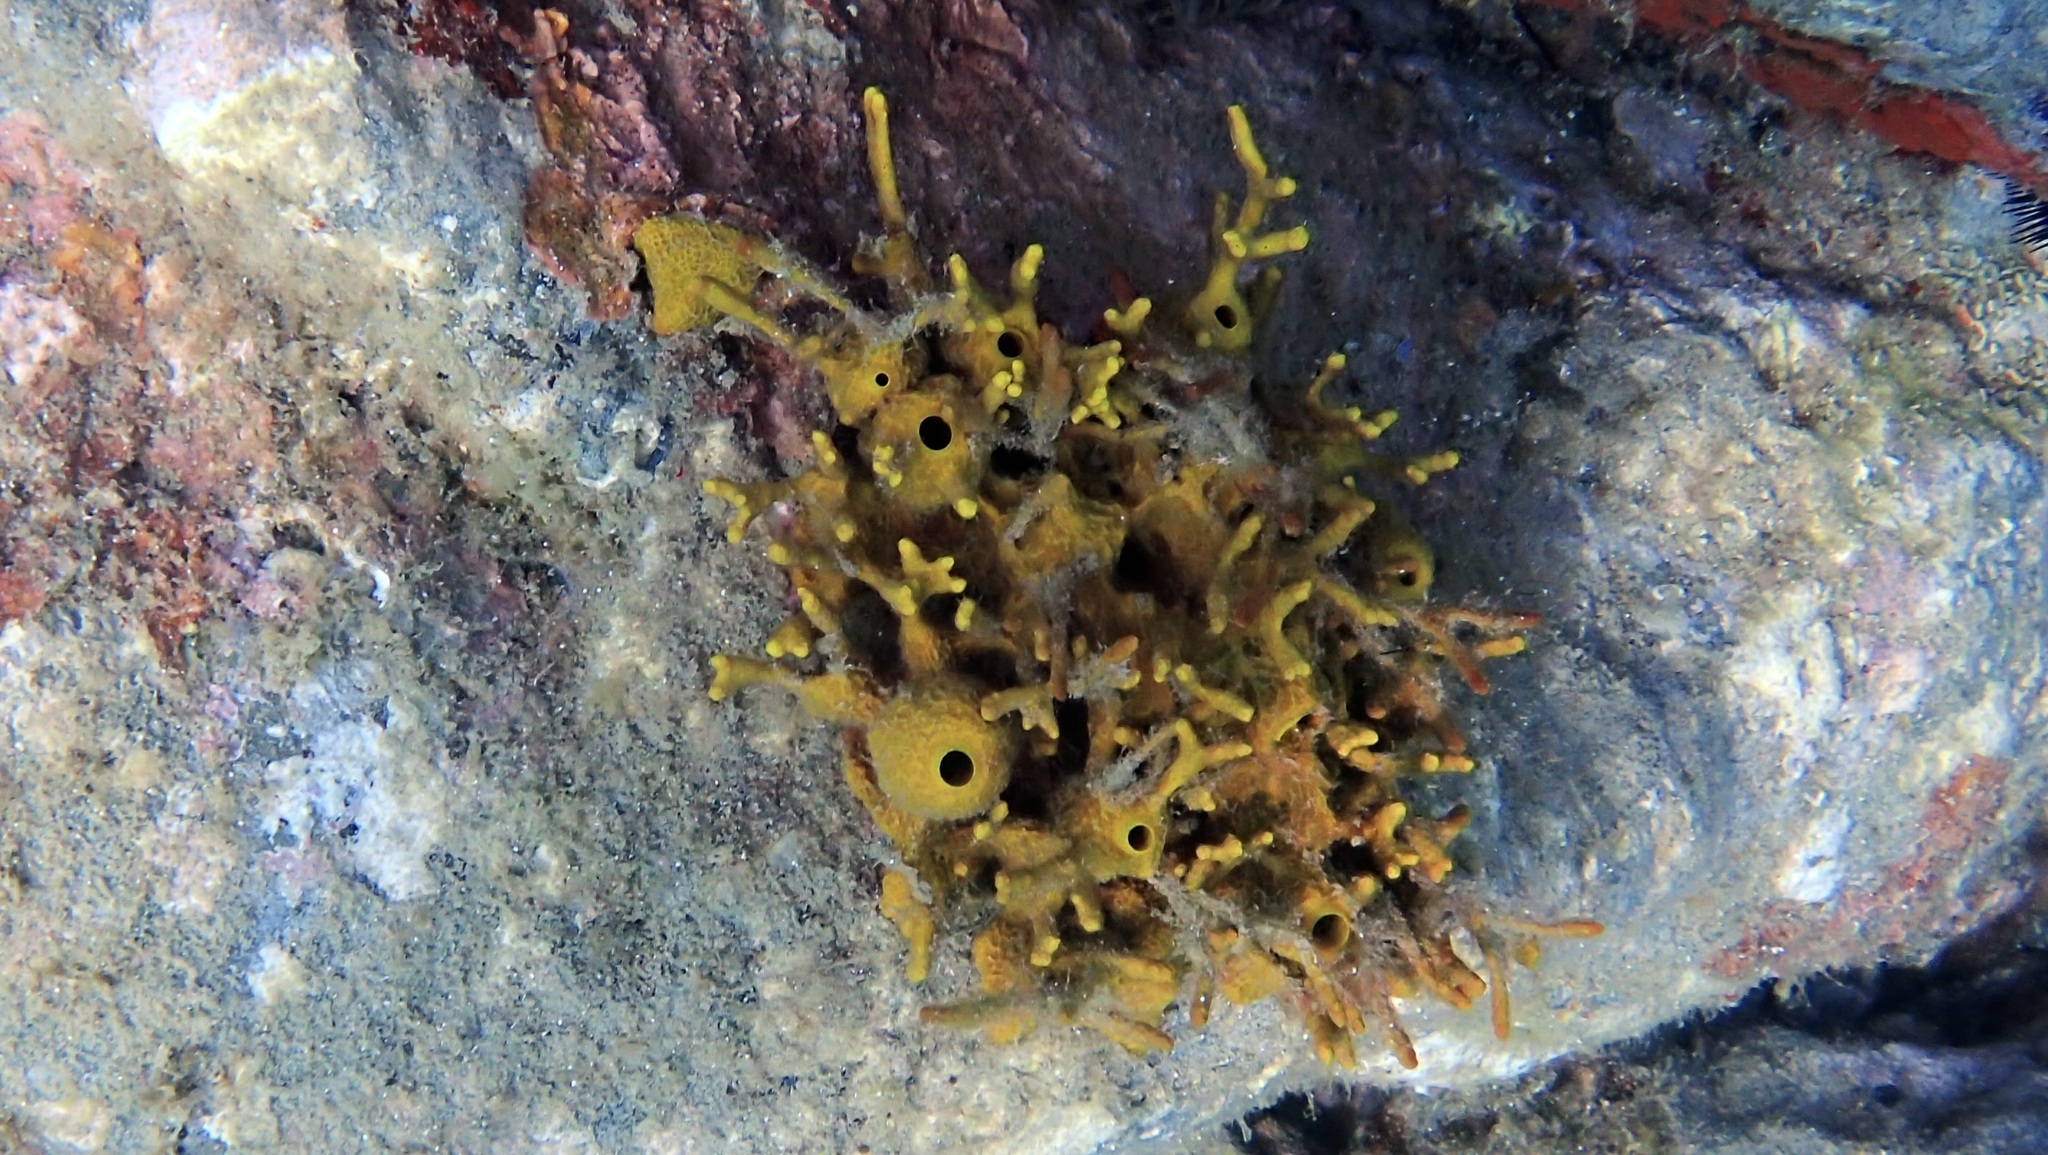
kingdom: Animalia
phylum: Porifera
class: Demospongiae
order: Verongiida
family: Aplysinidae
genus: Aplysina
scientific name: Aplysina aerophoba
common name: Aureate sponge
